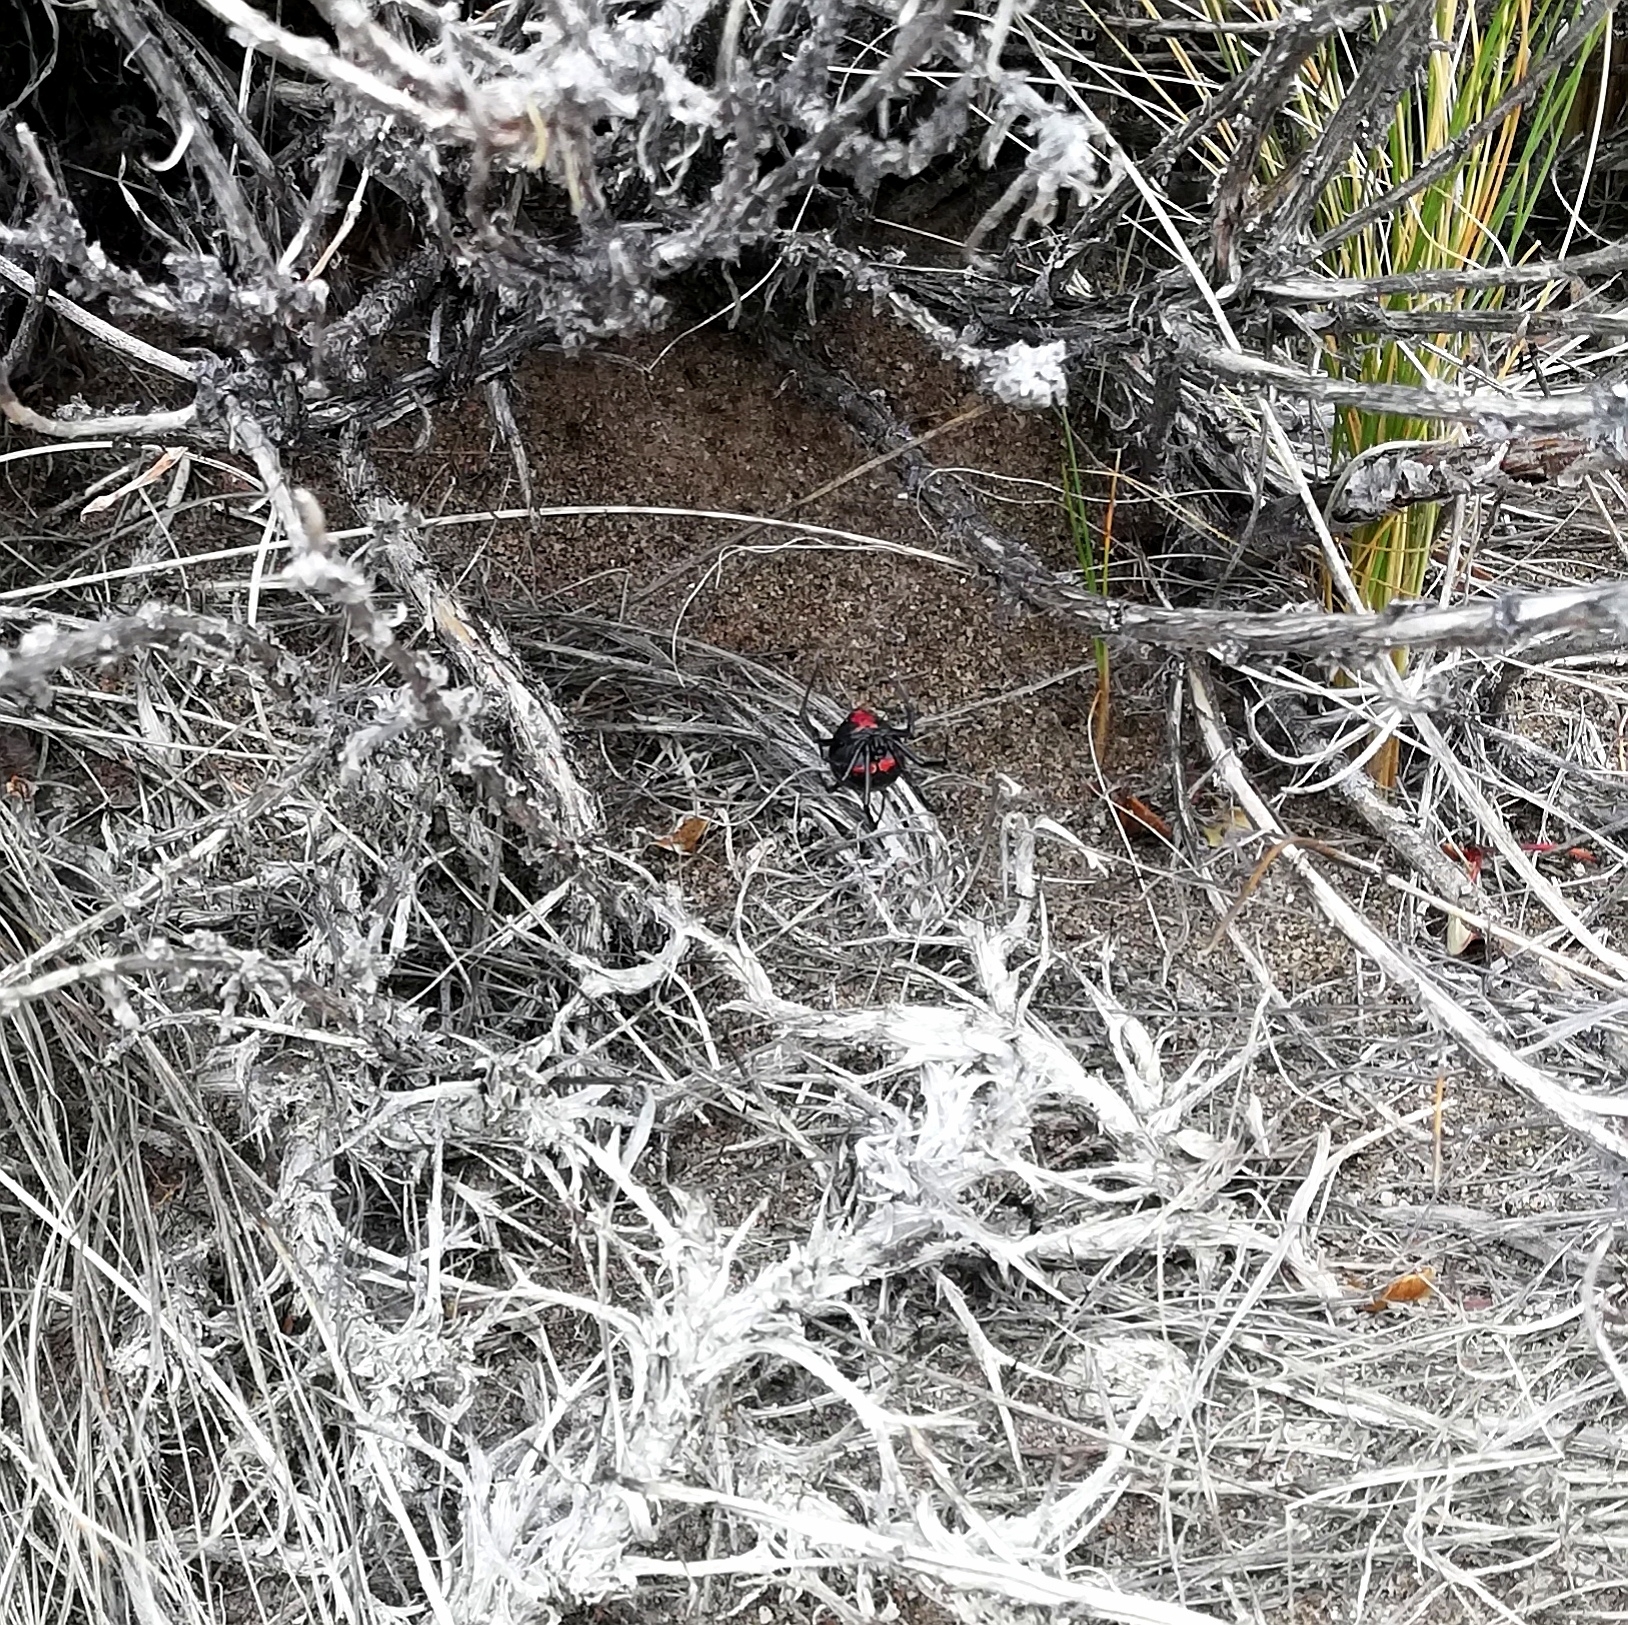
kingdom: Animalia
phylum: Arthropoda
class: Arachnida
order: Araneae
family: Theridiidae
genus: Latrodectus
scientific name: Latrodectus mirabilis
